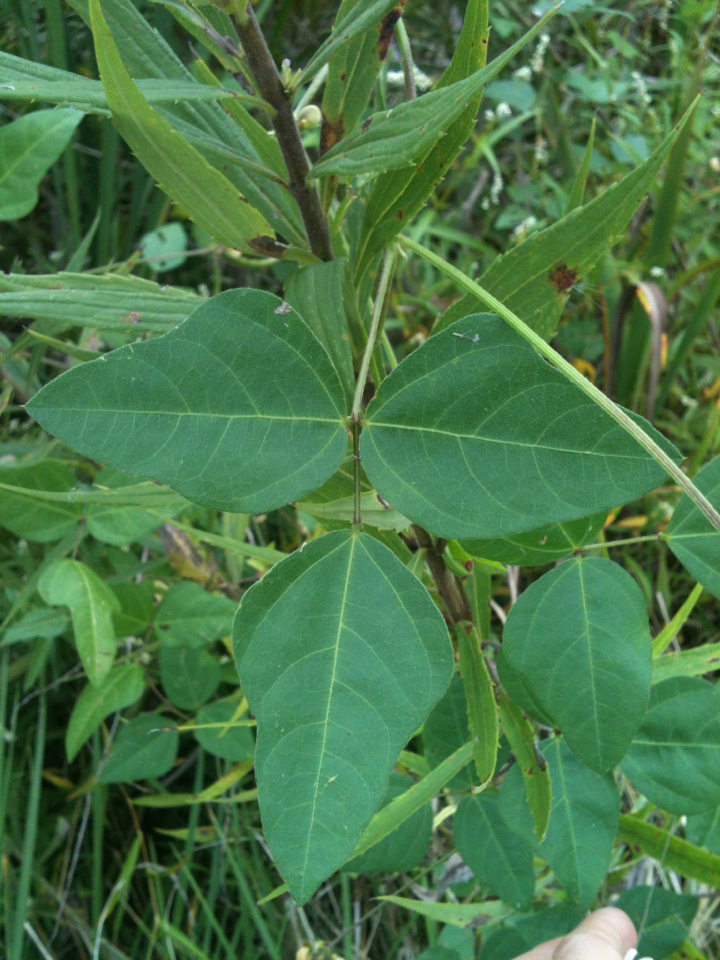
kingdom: Plantae
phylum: Tracheophyta
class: Magnoliopsida
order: Fabales
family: Fabaceae
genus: Strophostyles
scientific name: Strophostyles helvola
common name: Trailing wild bean
